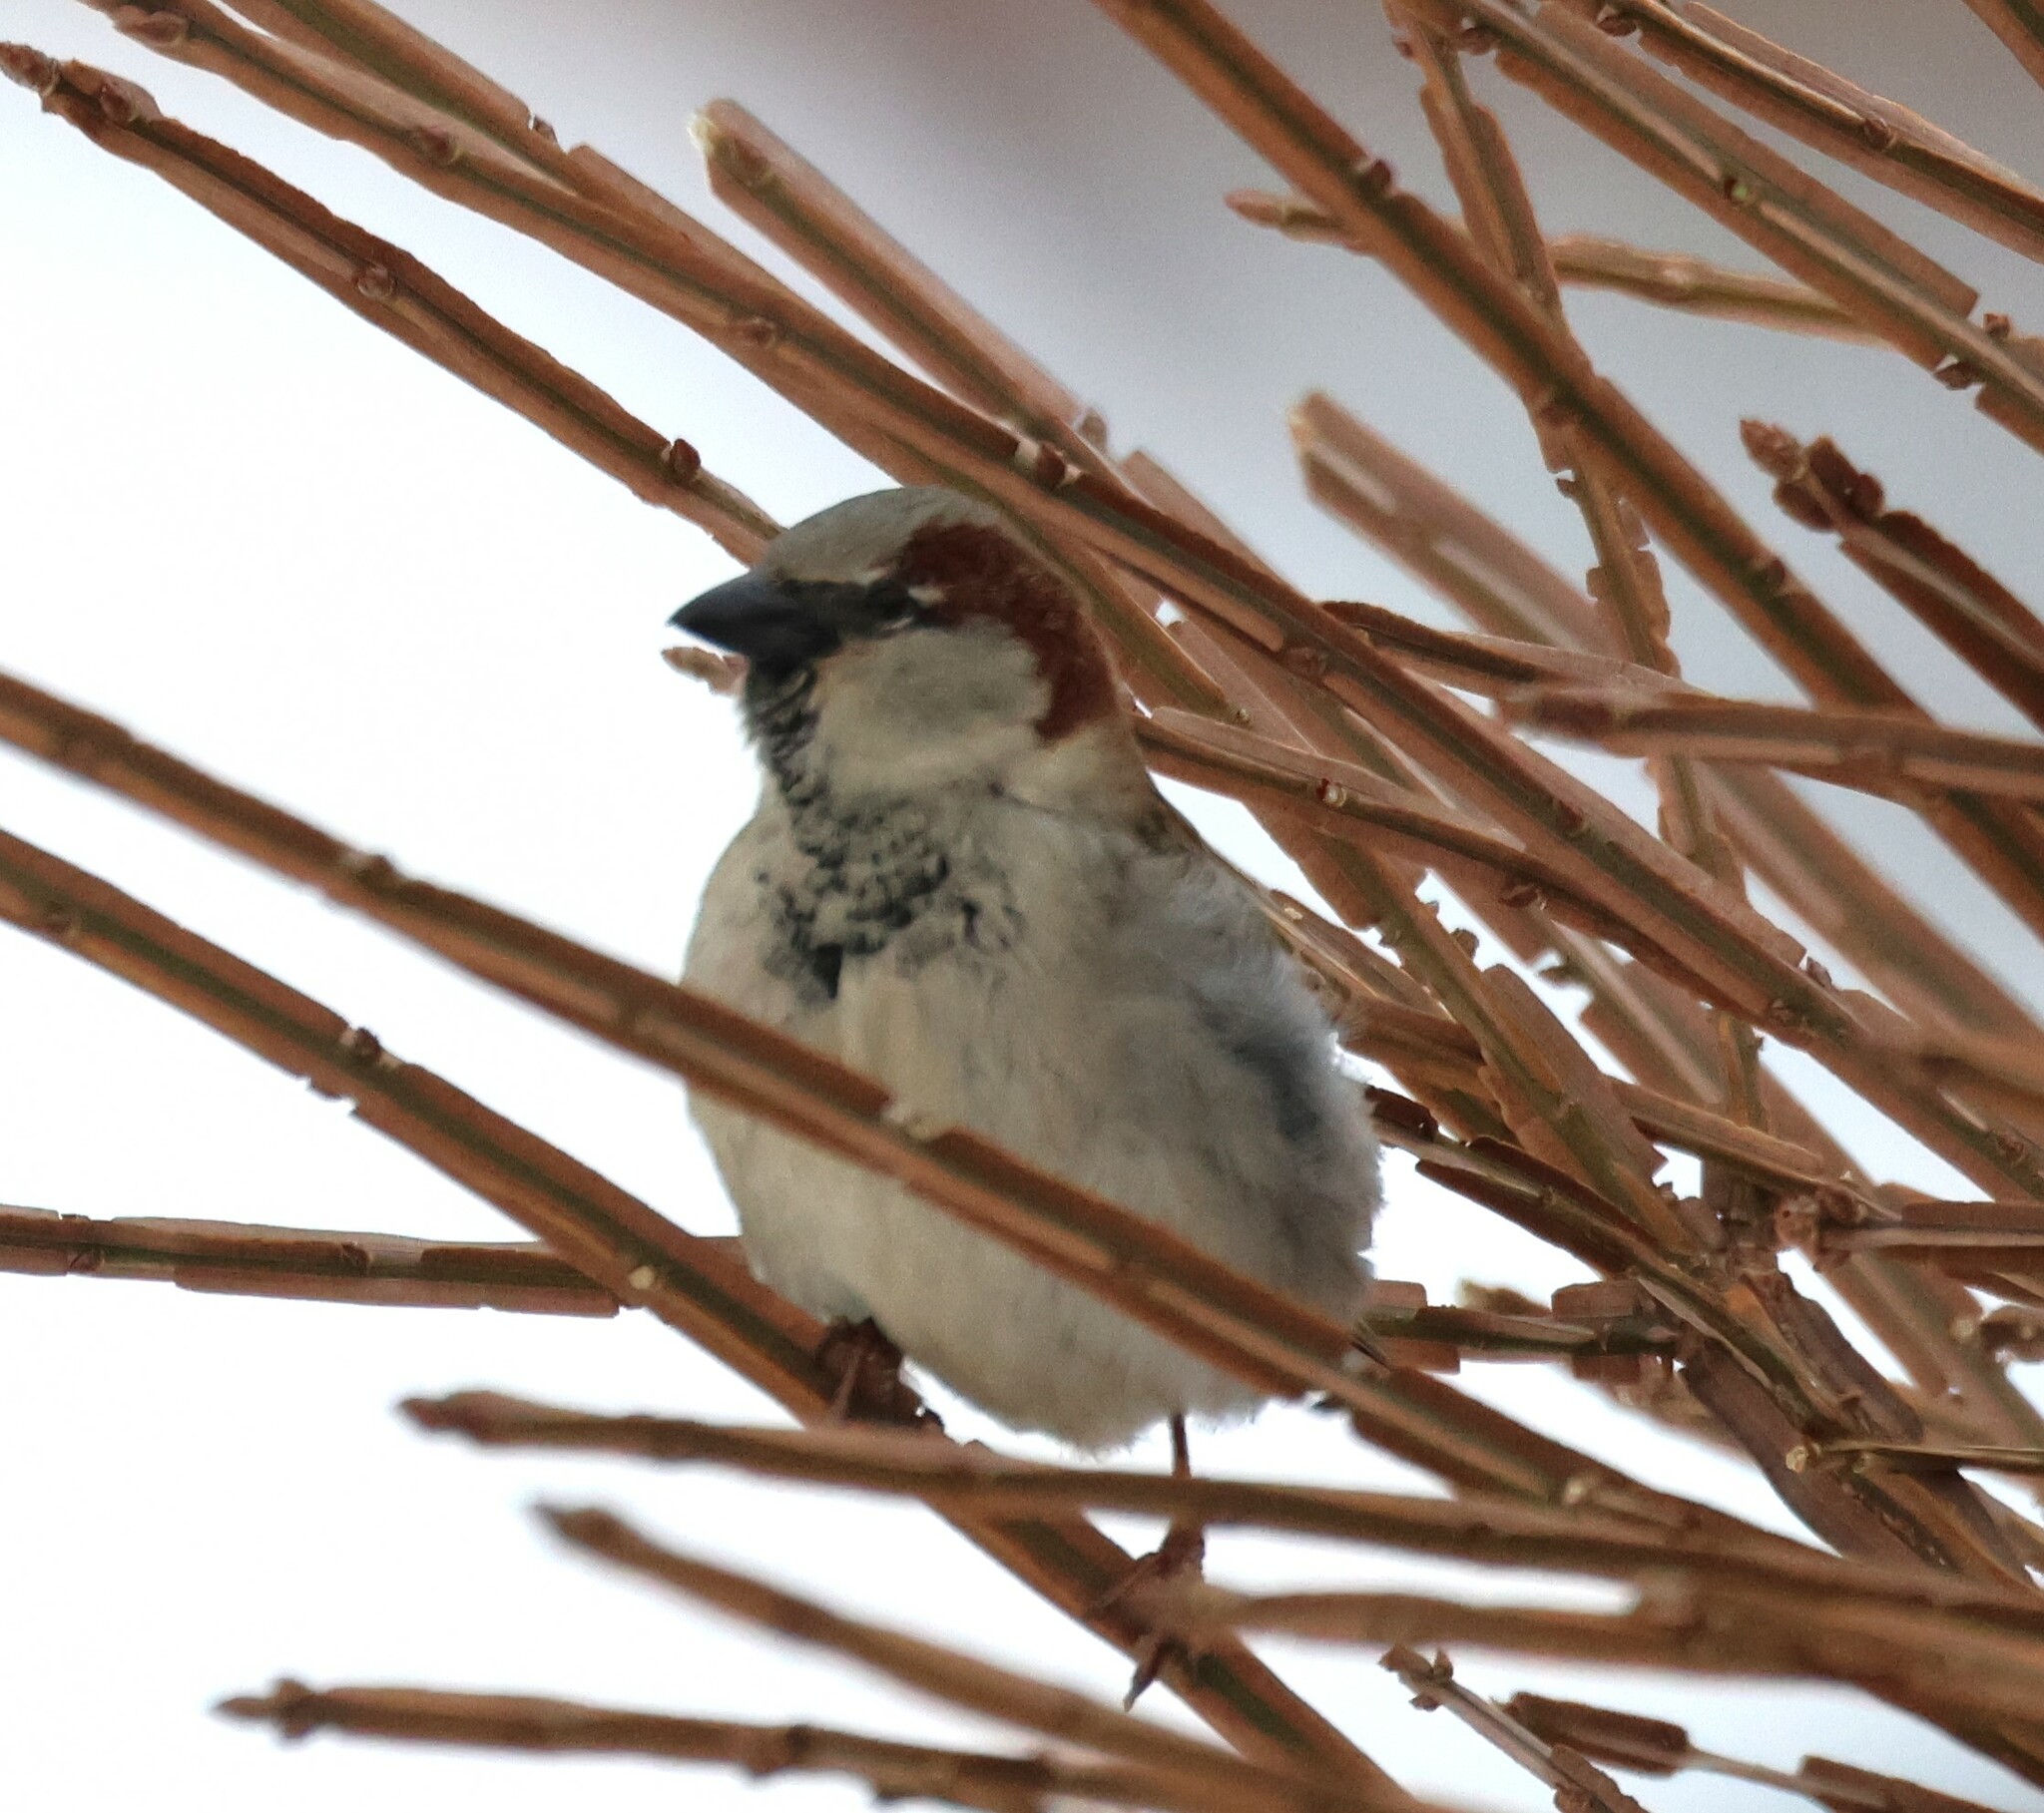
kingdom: Animalia
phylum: Chordata
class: Aves
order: Passeriformes
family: Passeridae
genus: Passer
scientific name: Passer domesticus
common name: House sparrow
